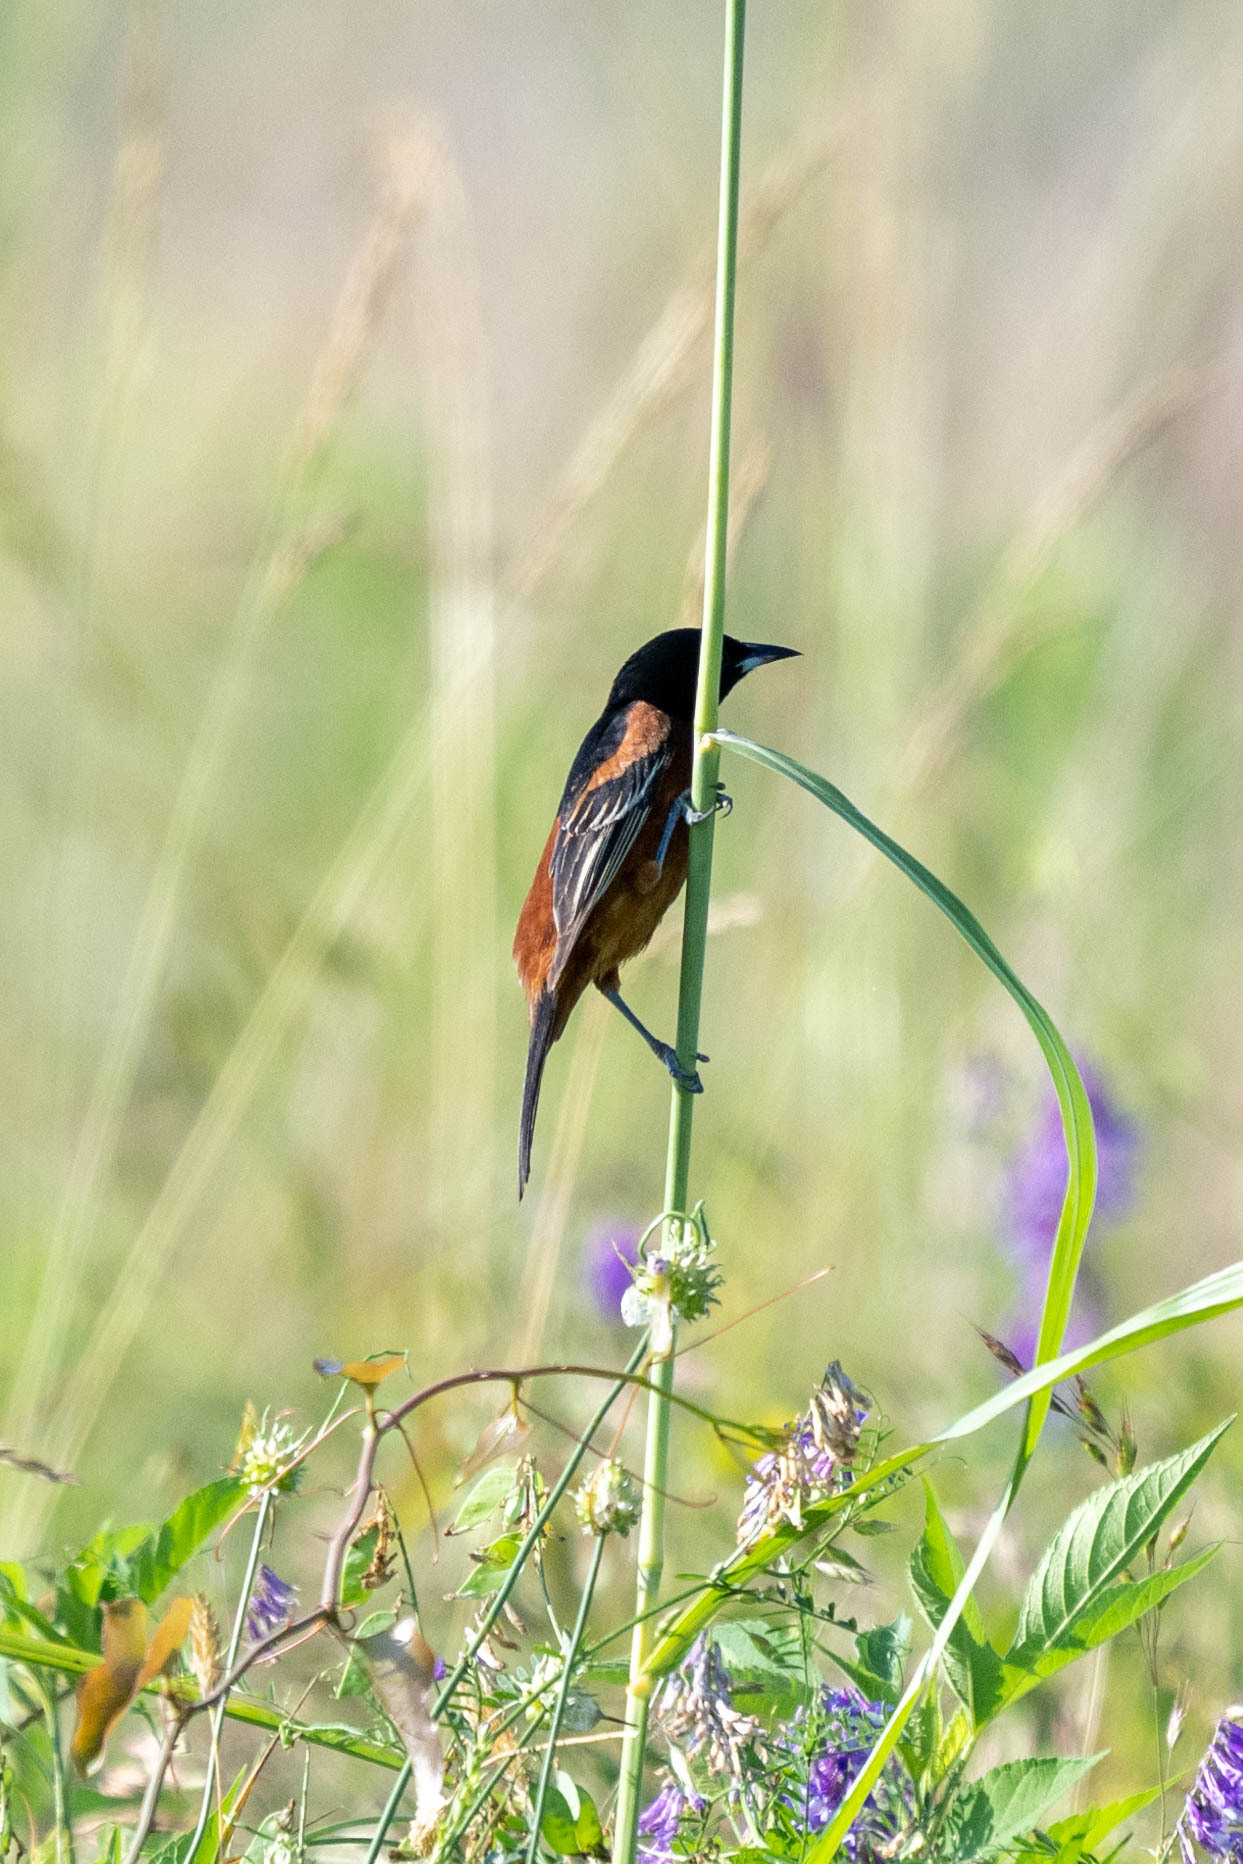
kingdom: Animalia
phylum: Chordata
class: Aves
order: Passeriformes
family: Icteridae
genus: Icterus
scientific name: Icterus spurius
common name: Orchard oriole
